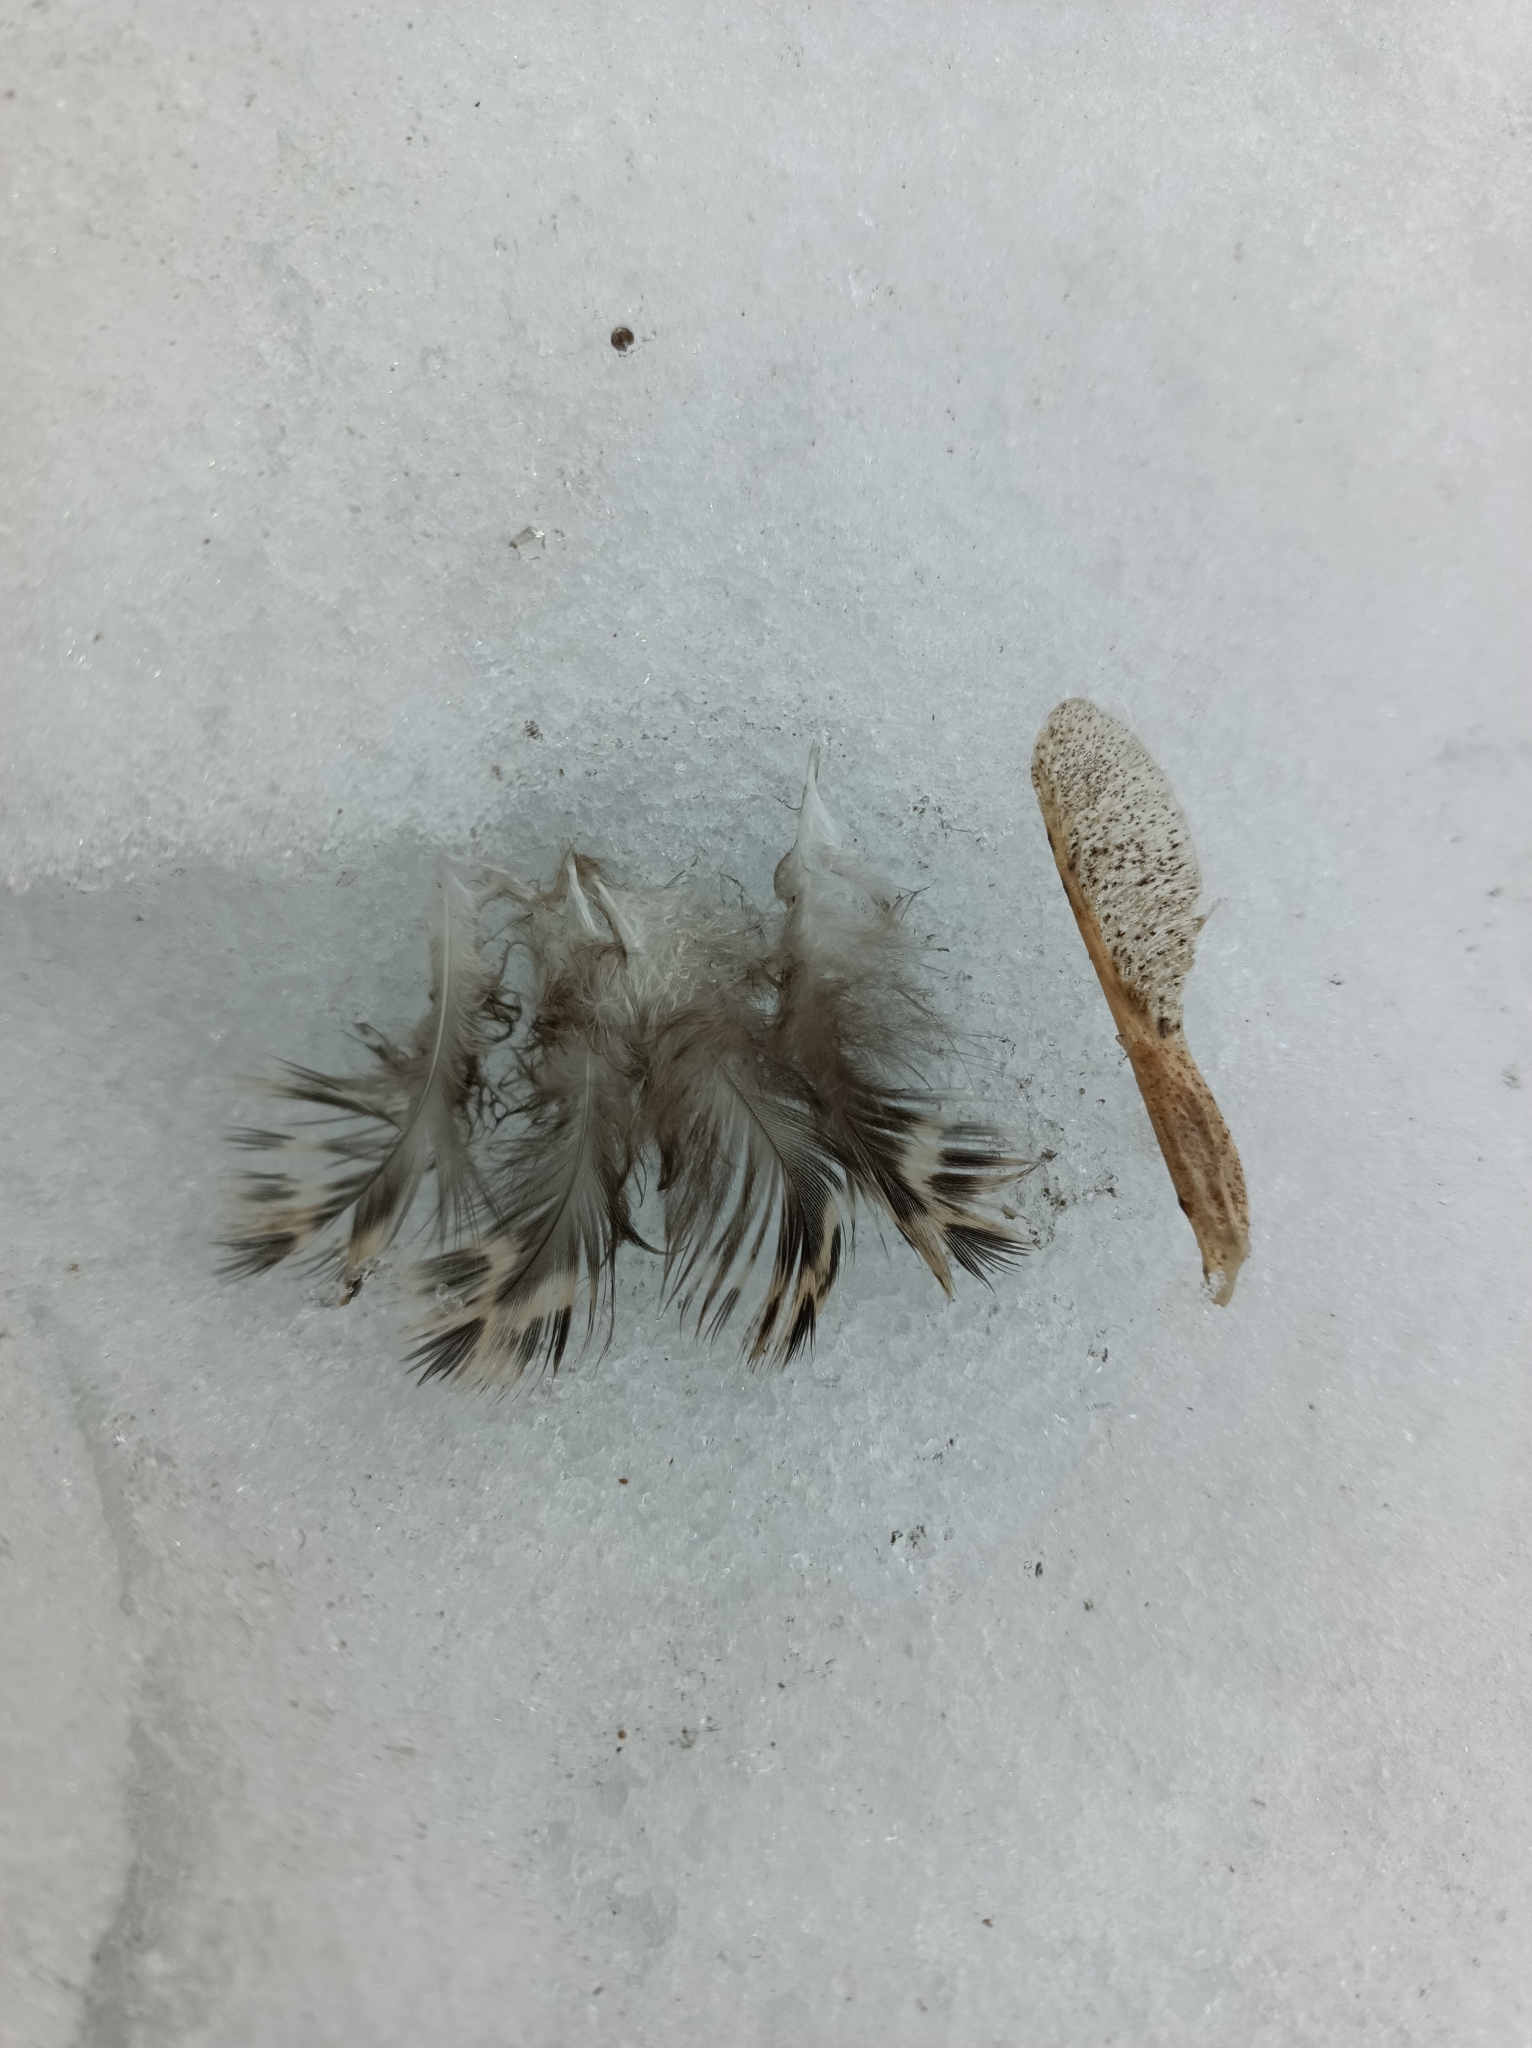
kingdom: Animalia
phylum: Chordata
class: Aves
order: Anseriformes
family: Anatidae
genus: Anas
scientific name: Anas platyrhynchos
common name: Mallard
